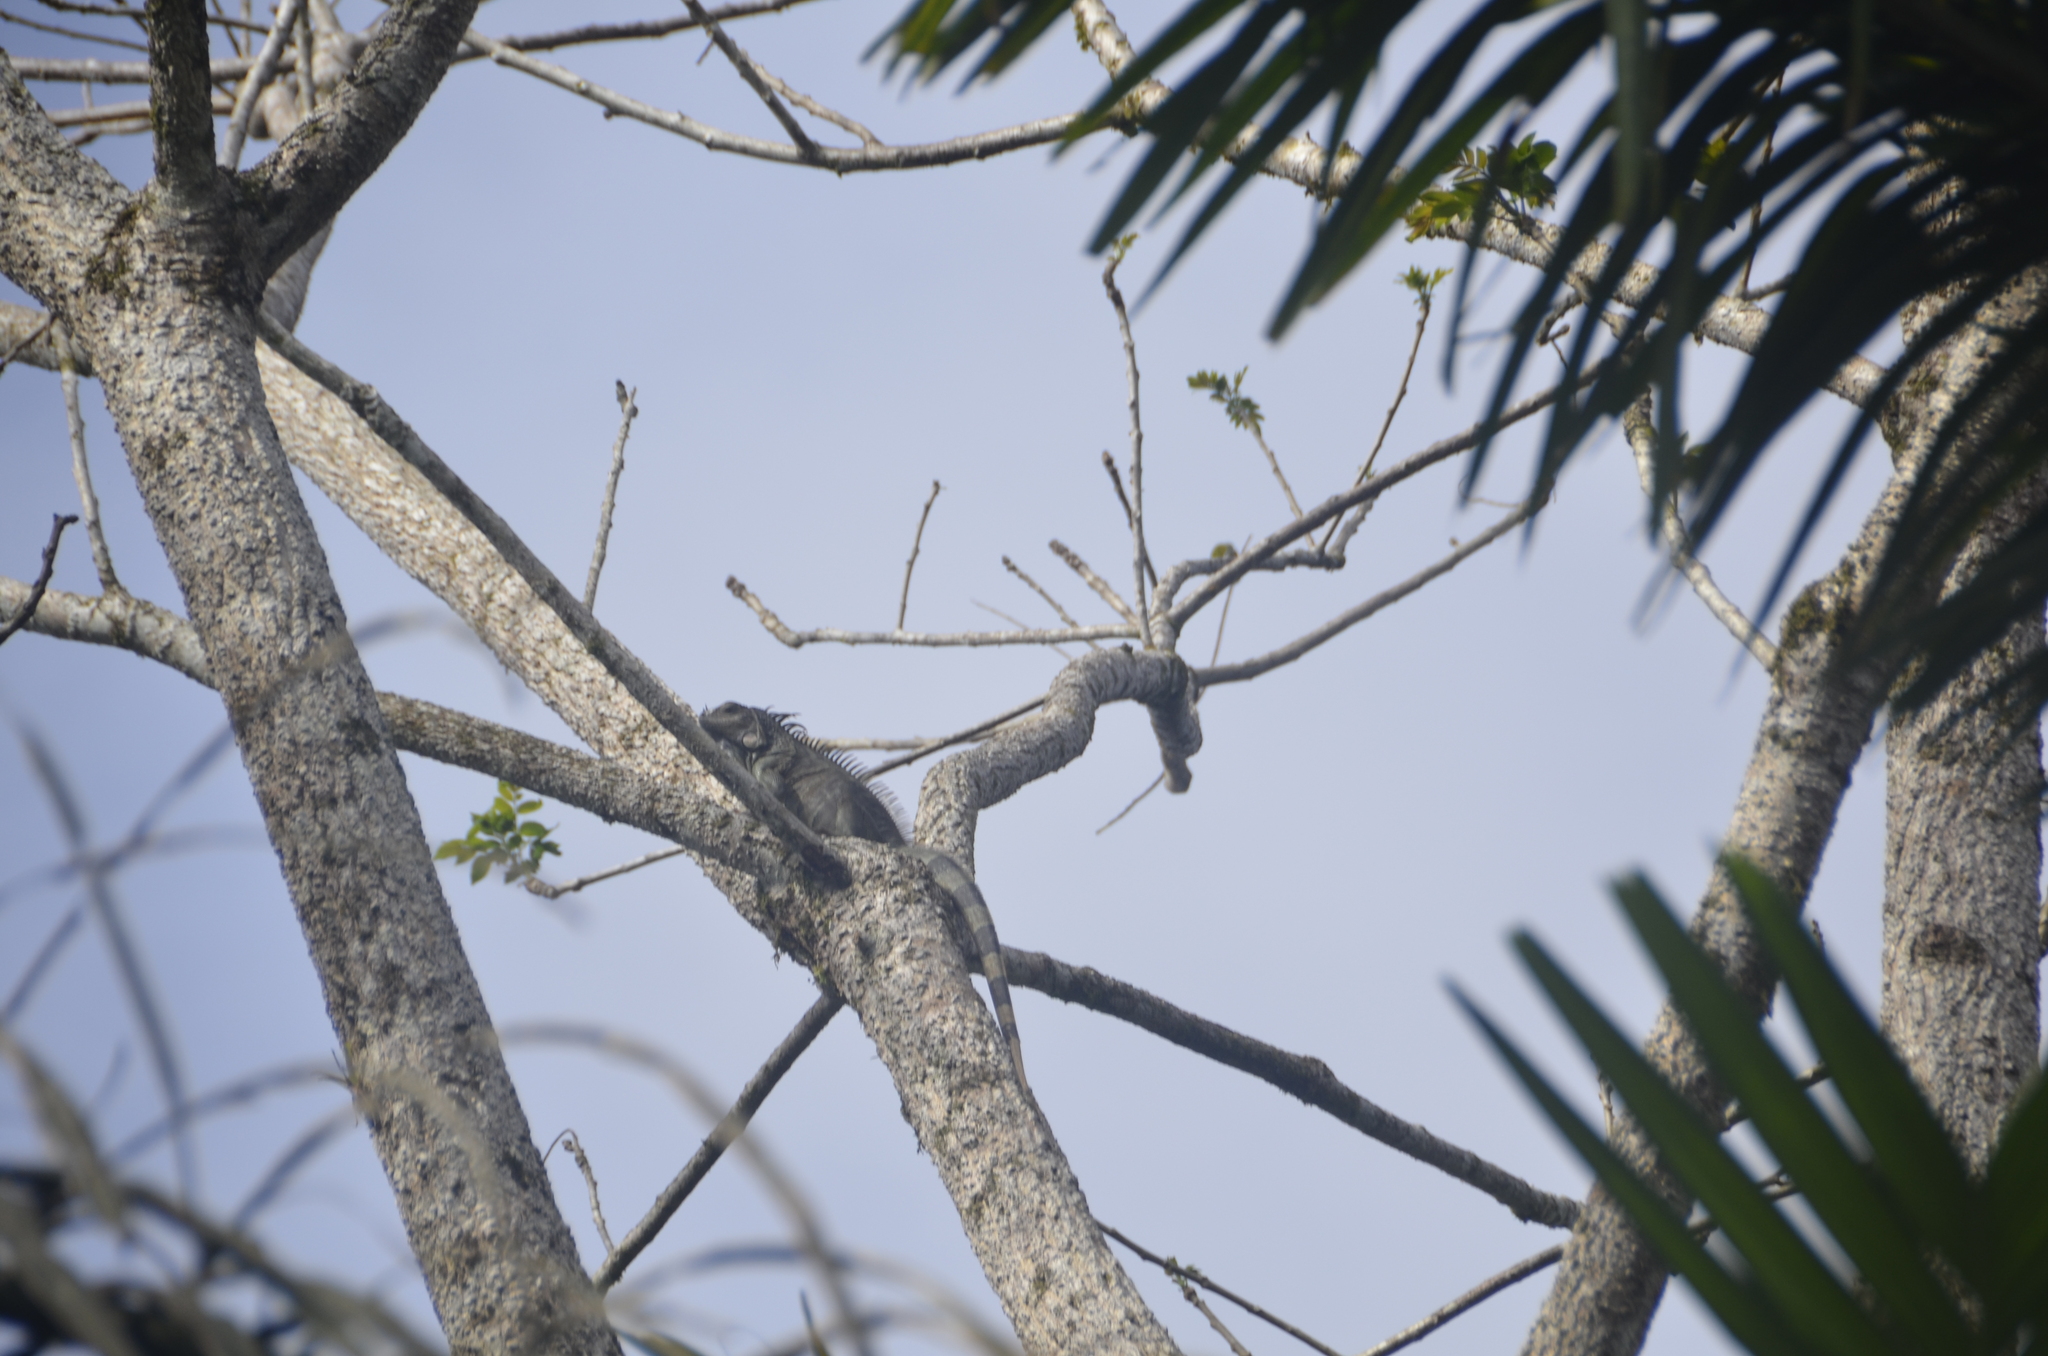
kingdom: Animalia
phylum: Chordata
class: Squamata
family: Iguanidae
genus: Iguana
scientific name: Iguana iguana
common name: Green iguana
